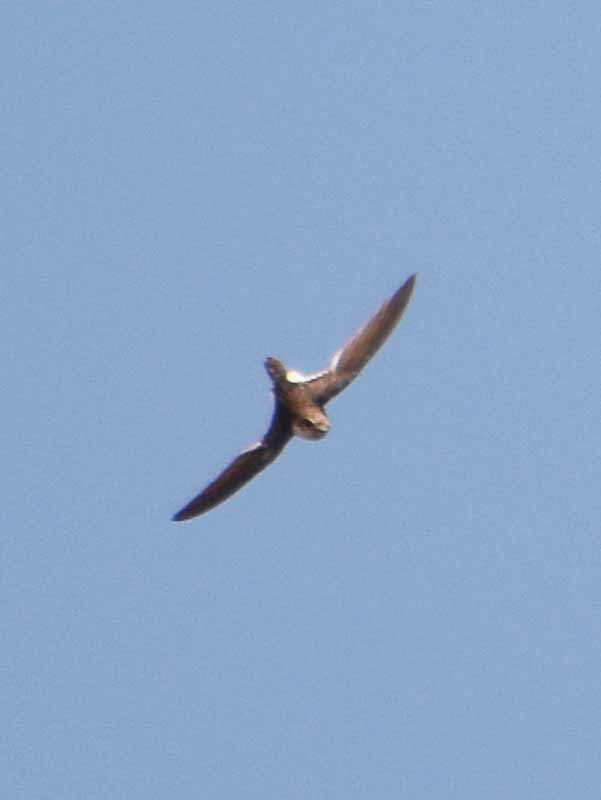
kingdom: Animalia
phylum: Chordata
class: Aves
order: Apodiformes
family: Apodidae
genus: Aeronautes
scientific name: Aeronautes saxatalis
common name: White-throated swift
